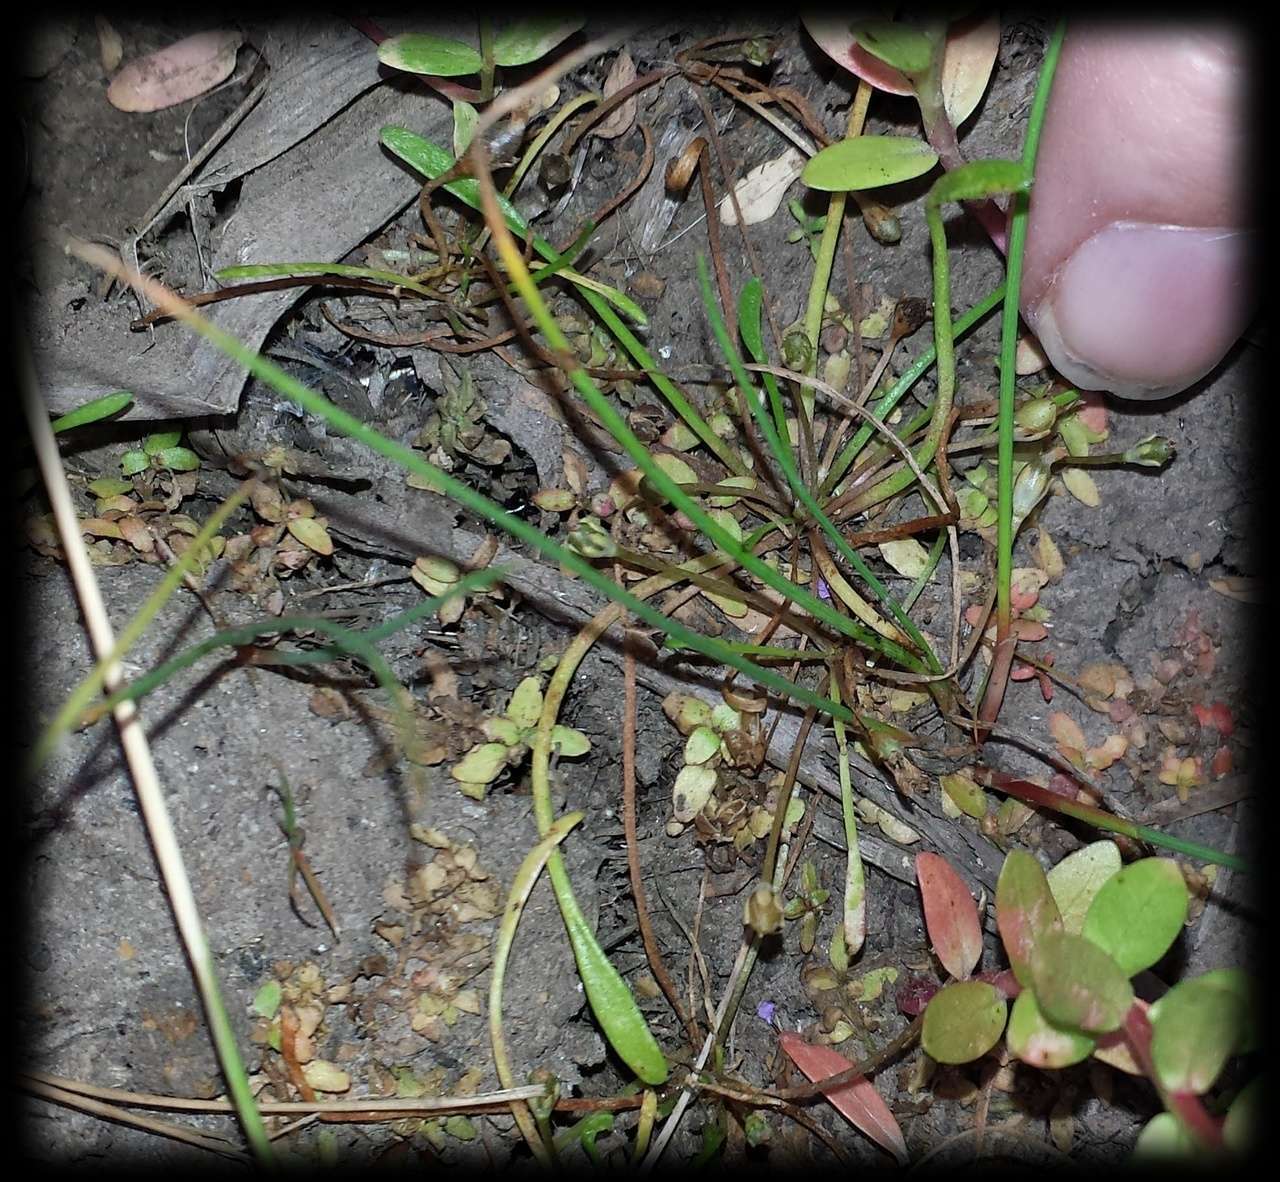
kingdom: Plantae
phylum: Tracheophyta
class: Magnoliopsida
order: Malpighiales
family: Elatinaceae
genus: Elatine
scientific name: Elatine gratioloides
